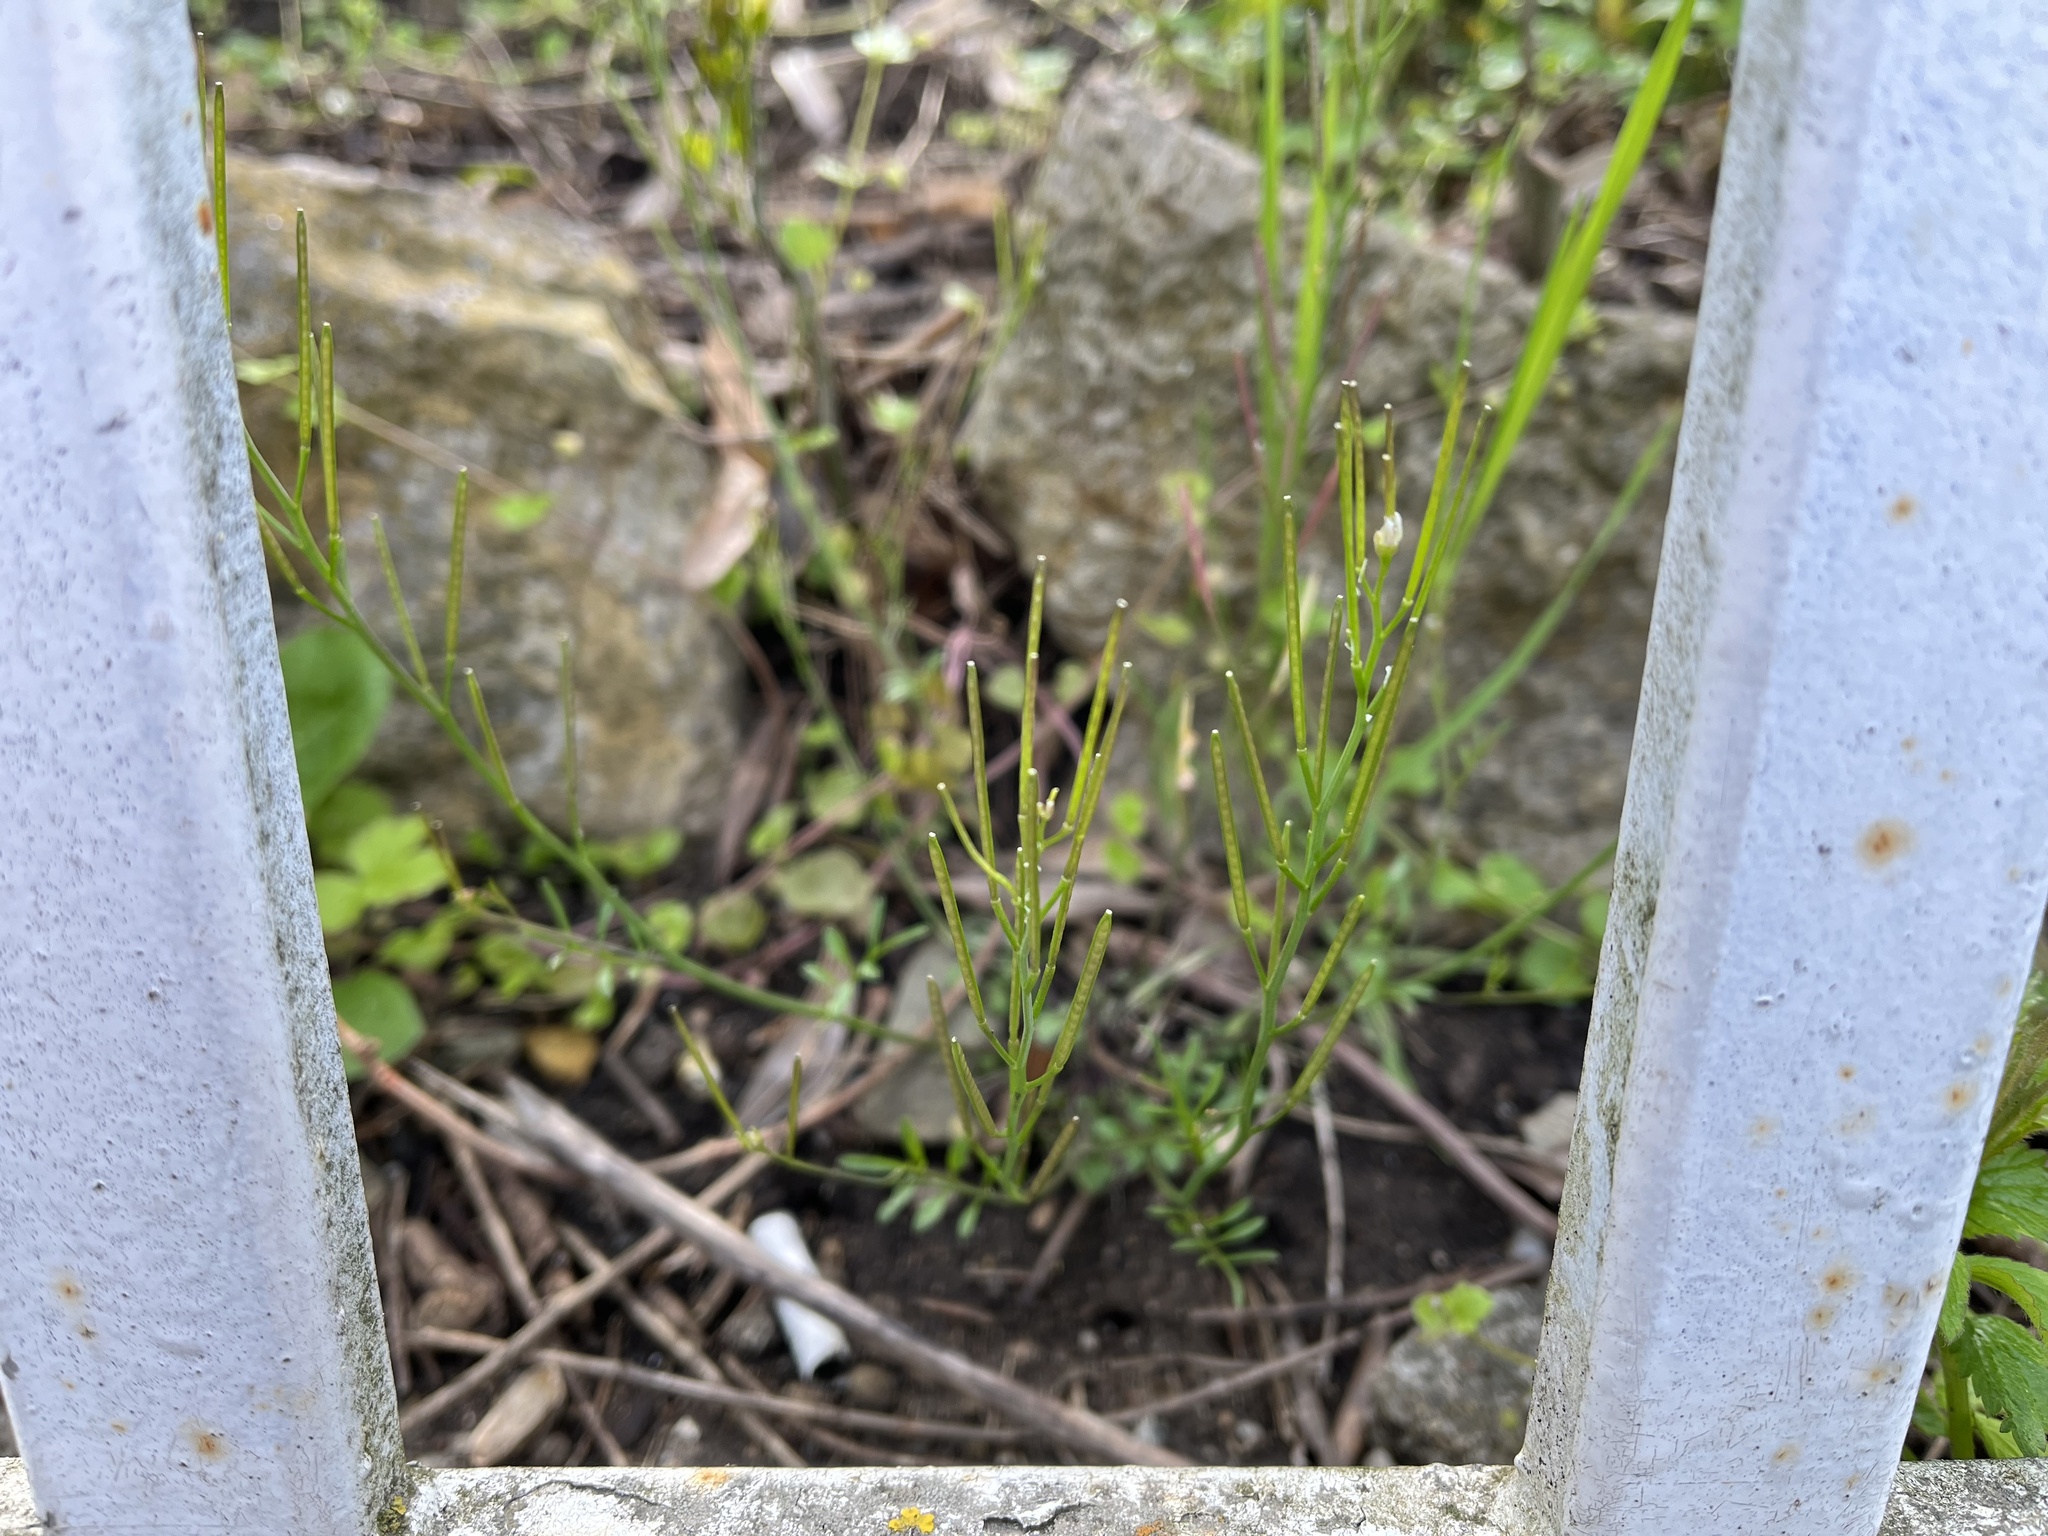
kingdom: Plantae
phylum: Tracheophyta
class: Magnoliopsida
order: Brassicales
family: Brassicaceae
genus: Cardamine
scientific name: Cardamine hirsuta
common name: Hairy bittercress
